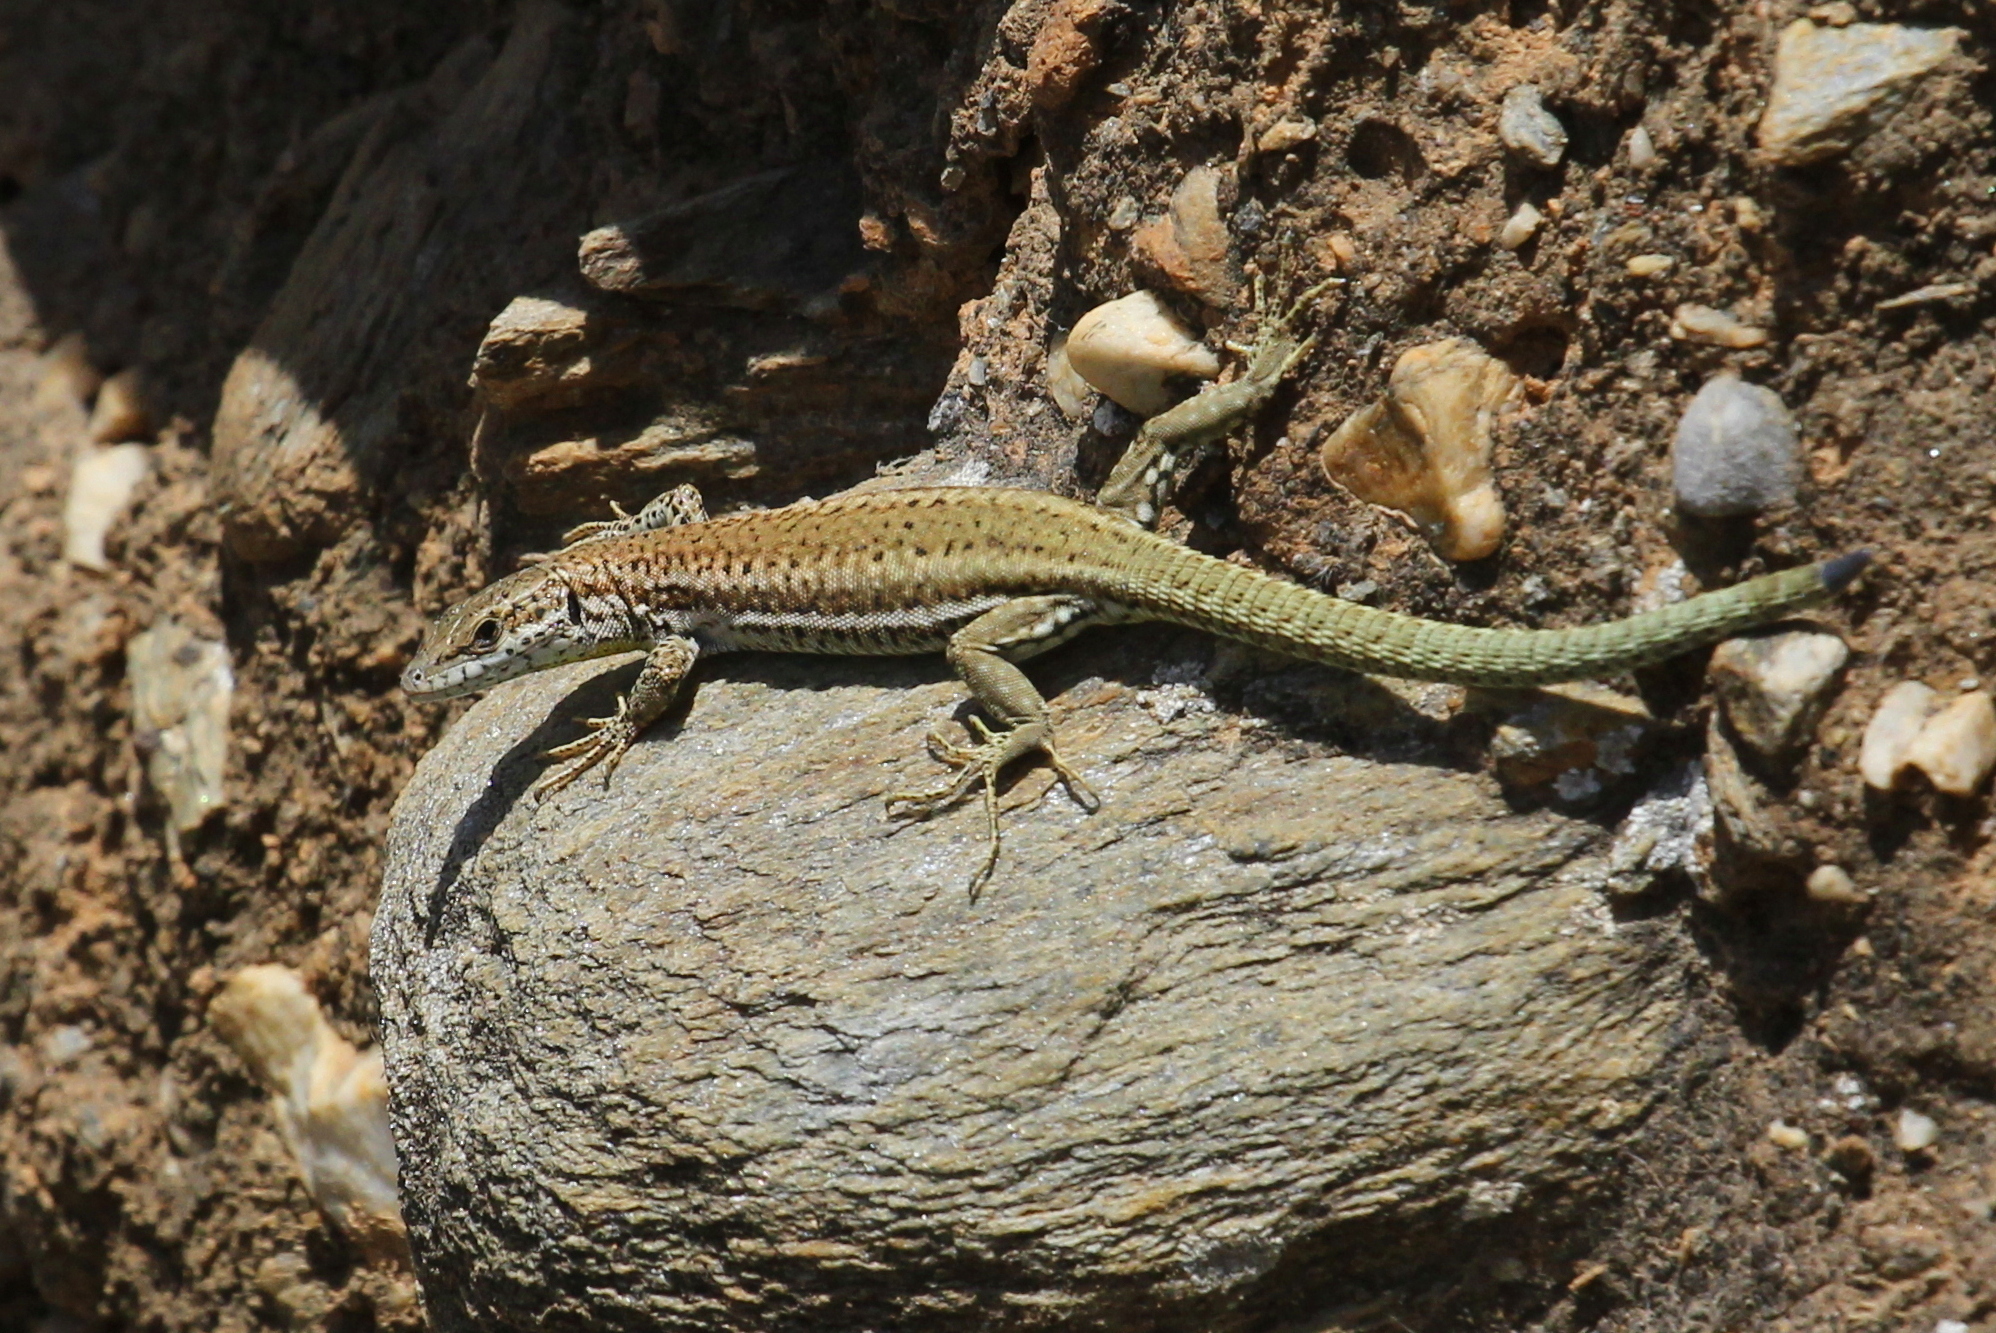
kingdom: Animalia
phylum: Chordata
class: Squamata
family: Lacertidae
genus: Podarcis
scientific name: Podarcis vaucheri
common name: Vaucher's wall lizard
